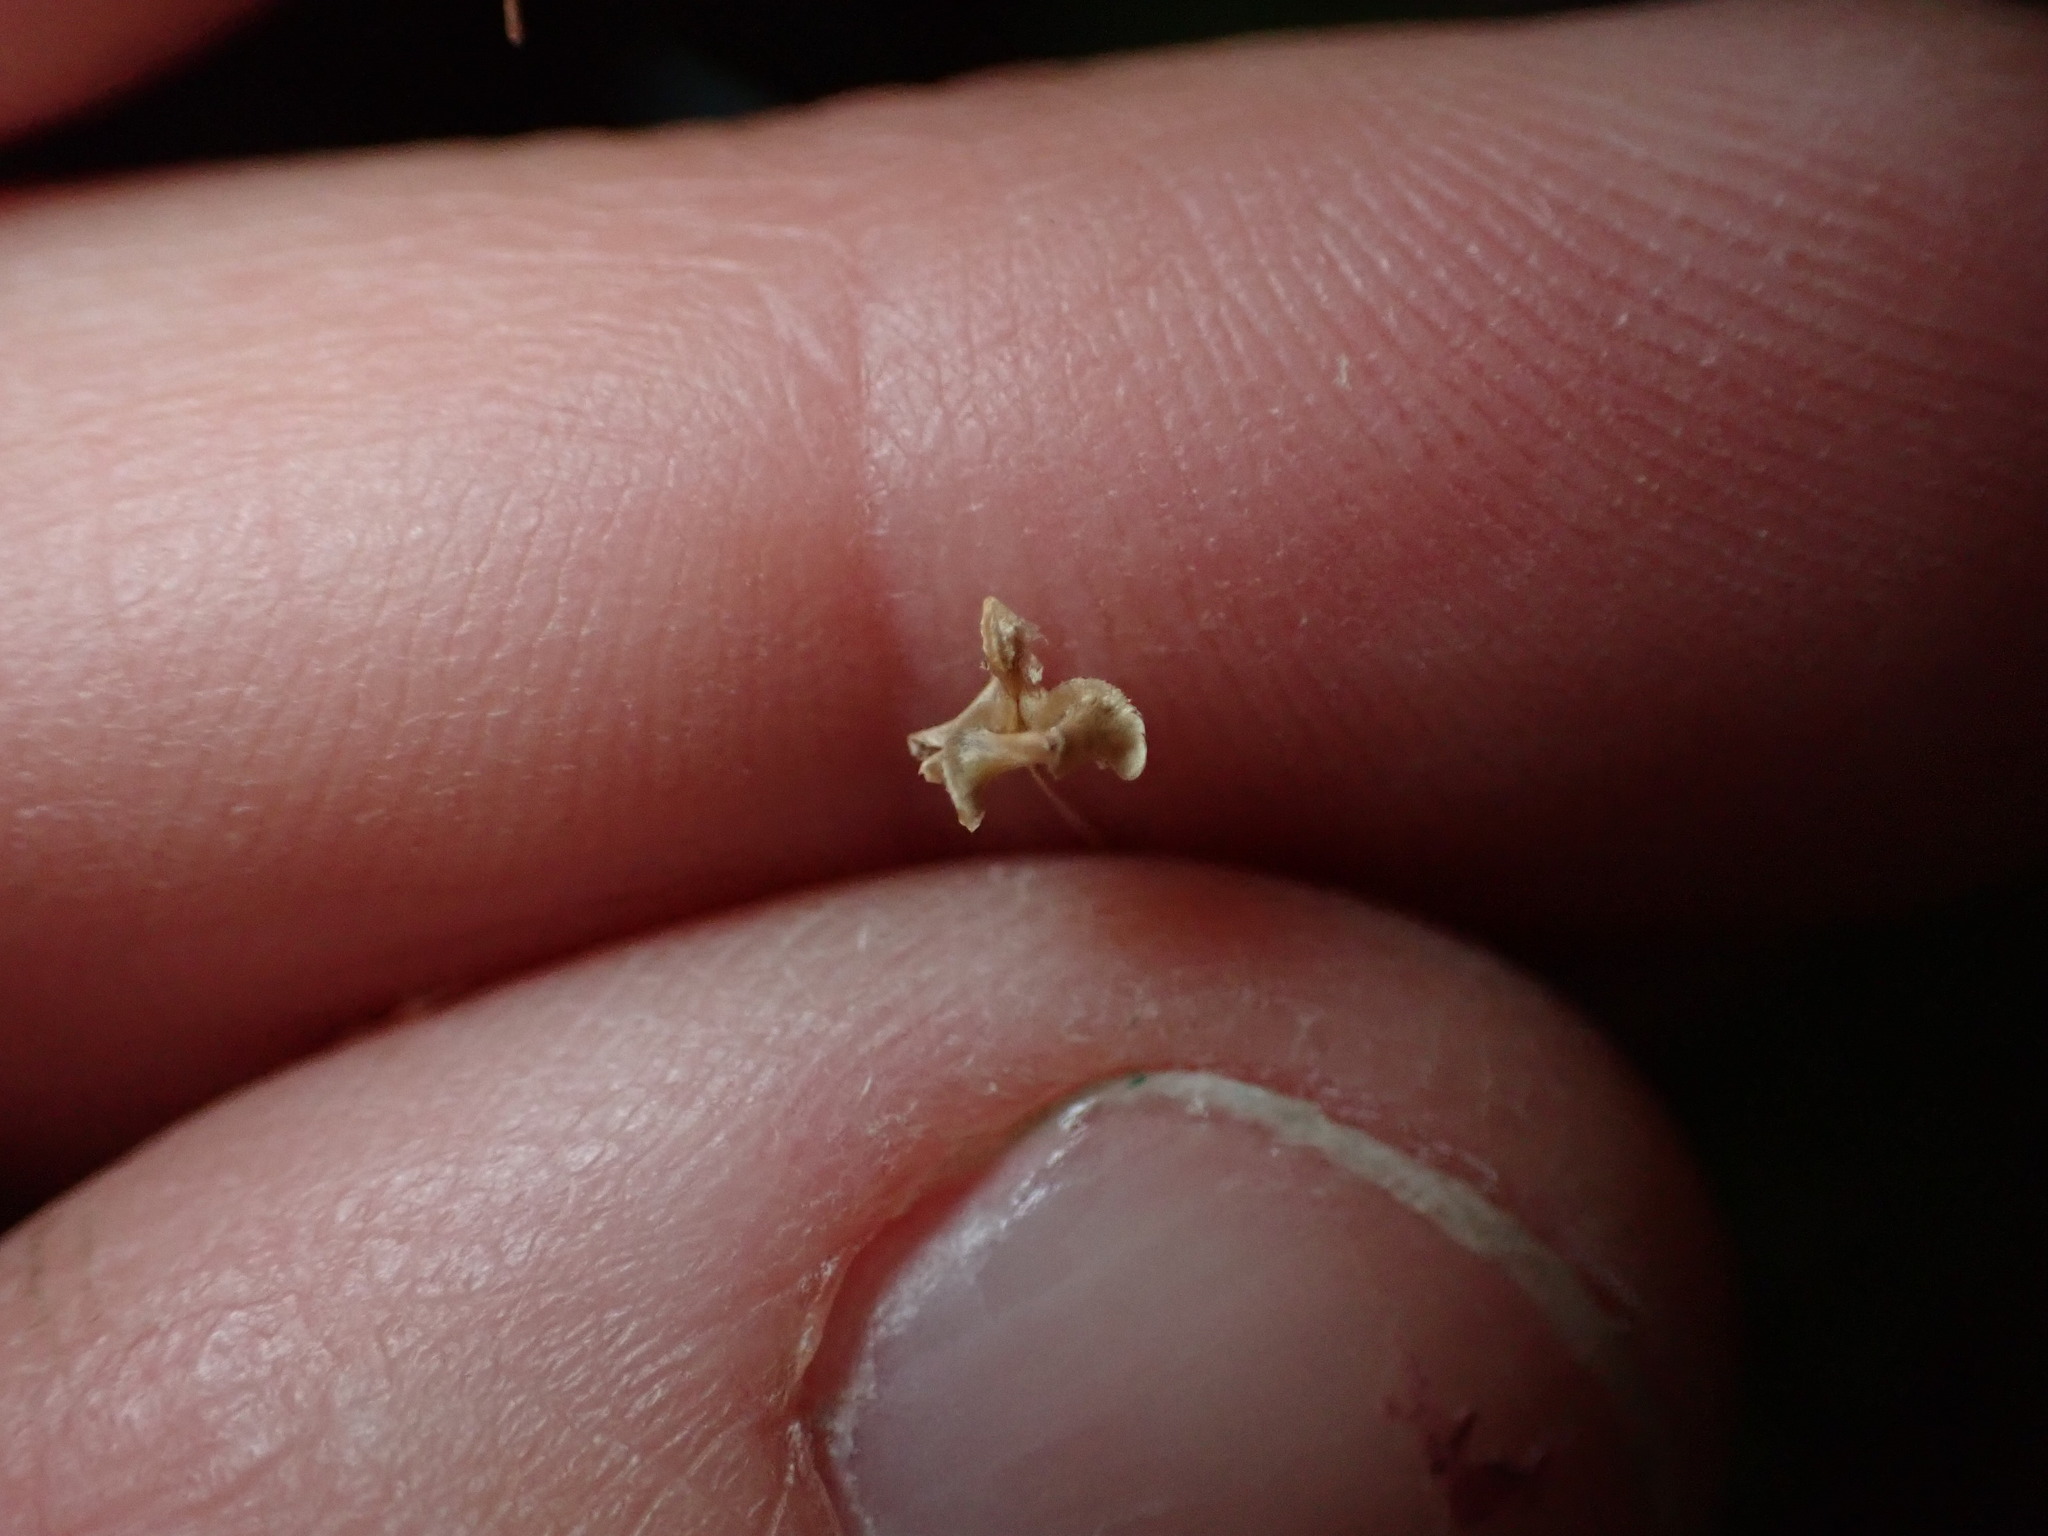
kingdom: Plantae
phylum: Tracheophyta
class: Liliopsida
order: Asparagales
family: Iridaceae
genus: Libertia
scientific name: Libertia micrantha
